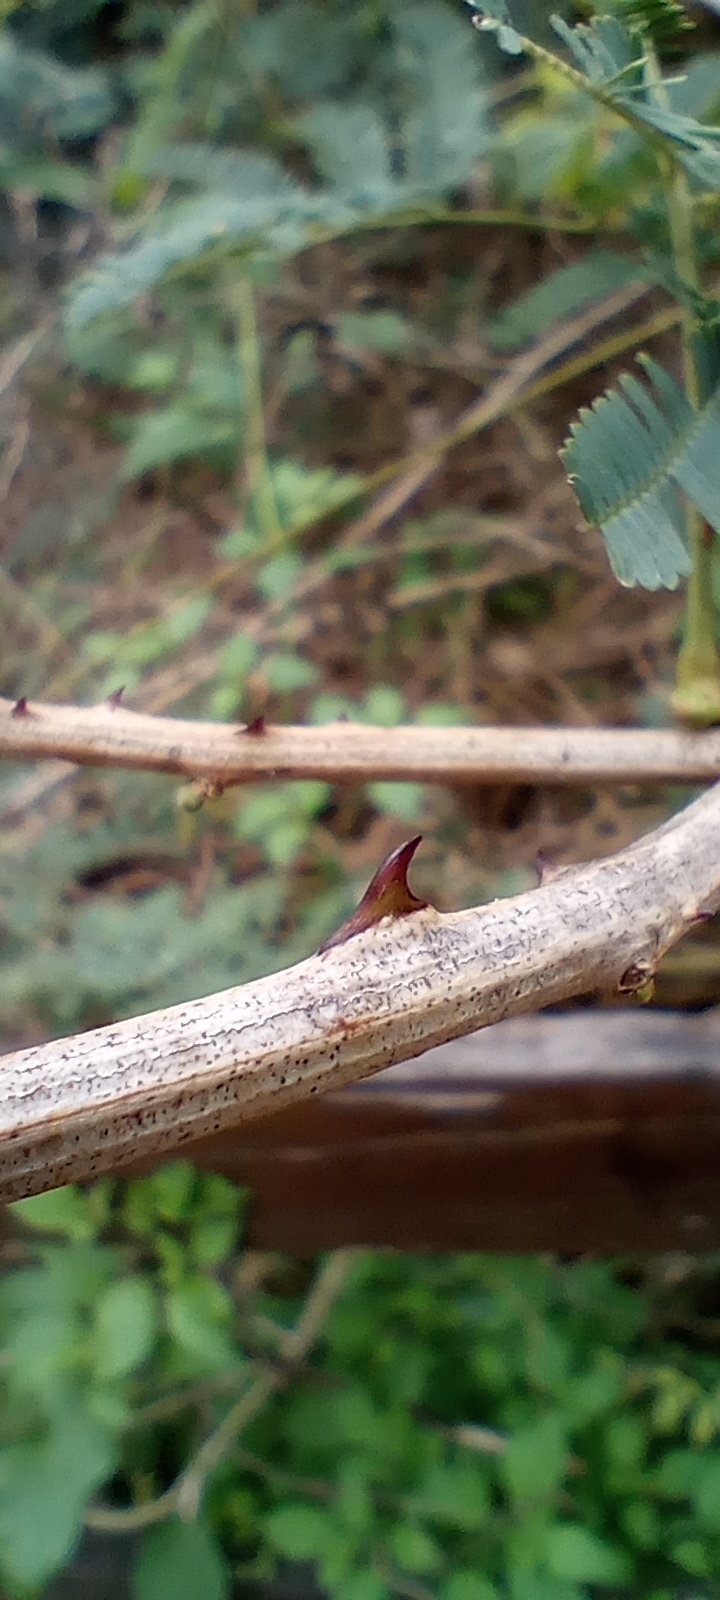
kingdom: Plantae
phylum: Tracheophyta
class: Magnoliopsida
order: Fabales
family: Fabaceae
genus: Senegalia
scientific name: Senegalia bonariensis
